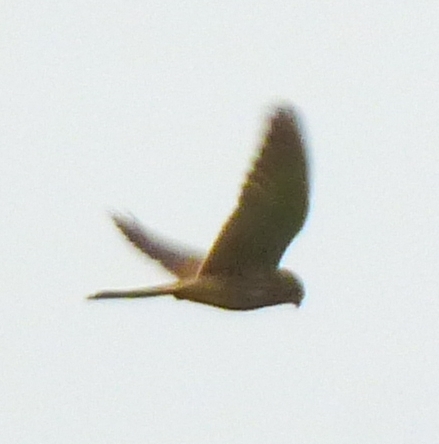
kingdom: Animalia
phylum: Chordata
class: Aves
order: Falconiformes
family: Falconidae
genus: Falco
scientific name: Falco tinnunculus
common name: Common kestrel
